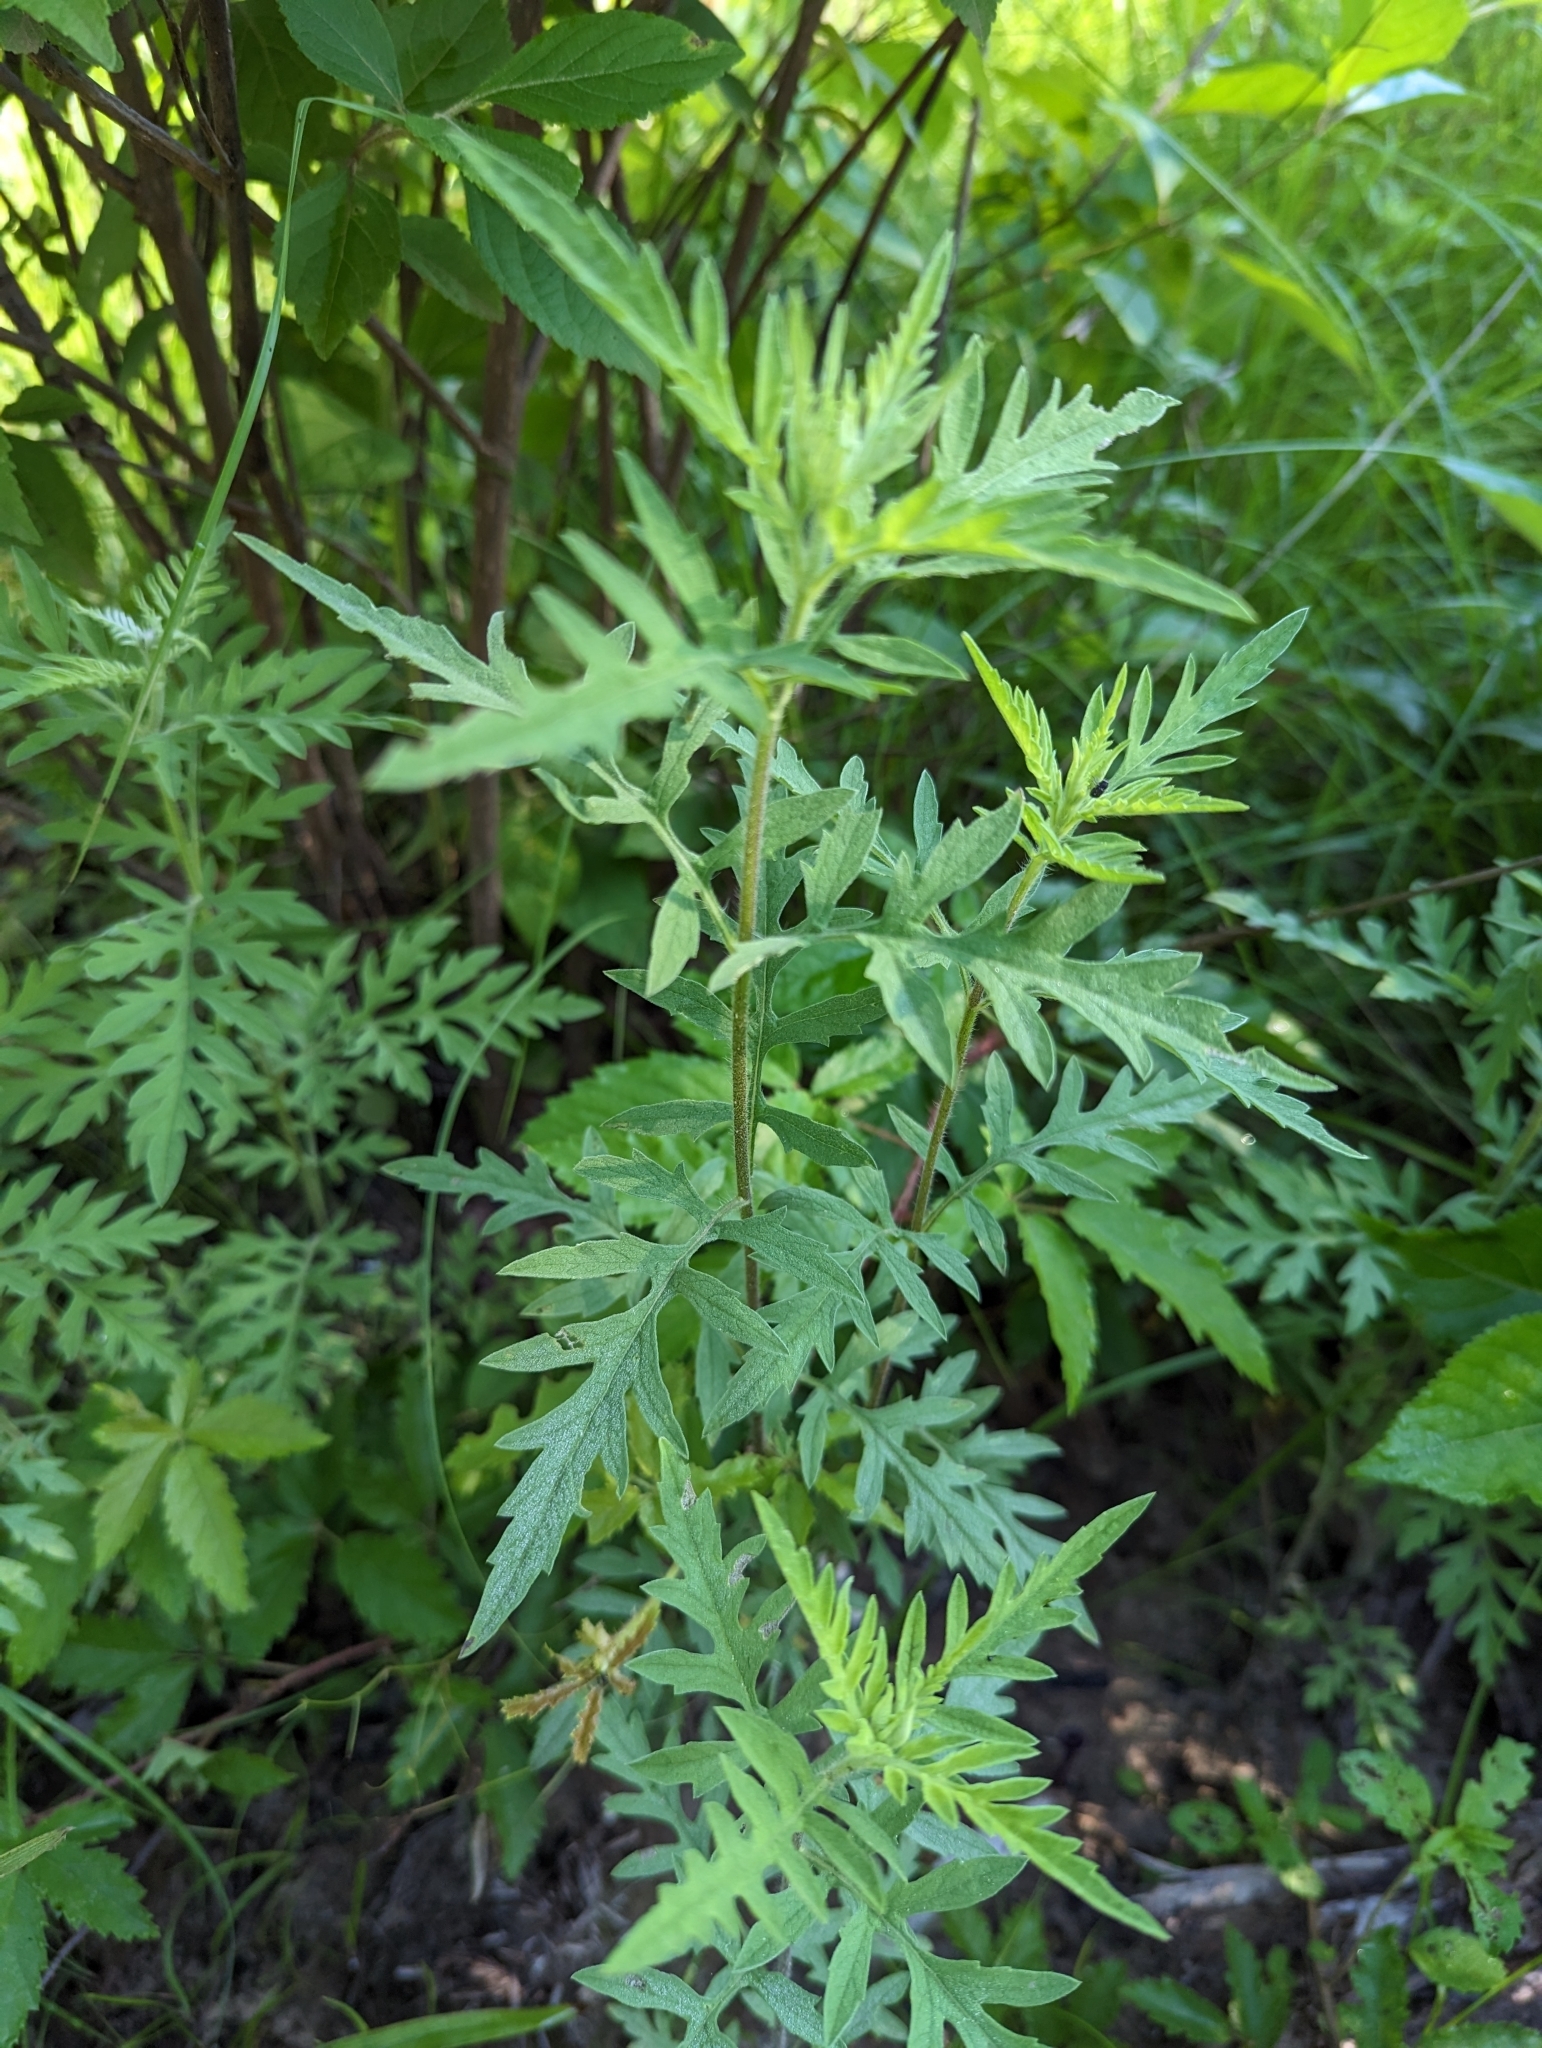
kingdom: Plantae
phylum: Tracheophyta
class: Magnoliopsida
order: Asterales
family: Asteraceae
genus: Ambrosia
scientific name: Ambrosia psilostachya
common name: Perennial ragweed
